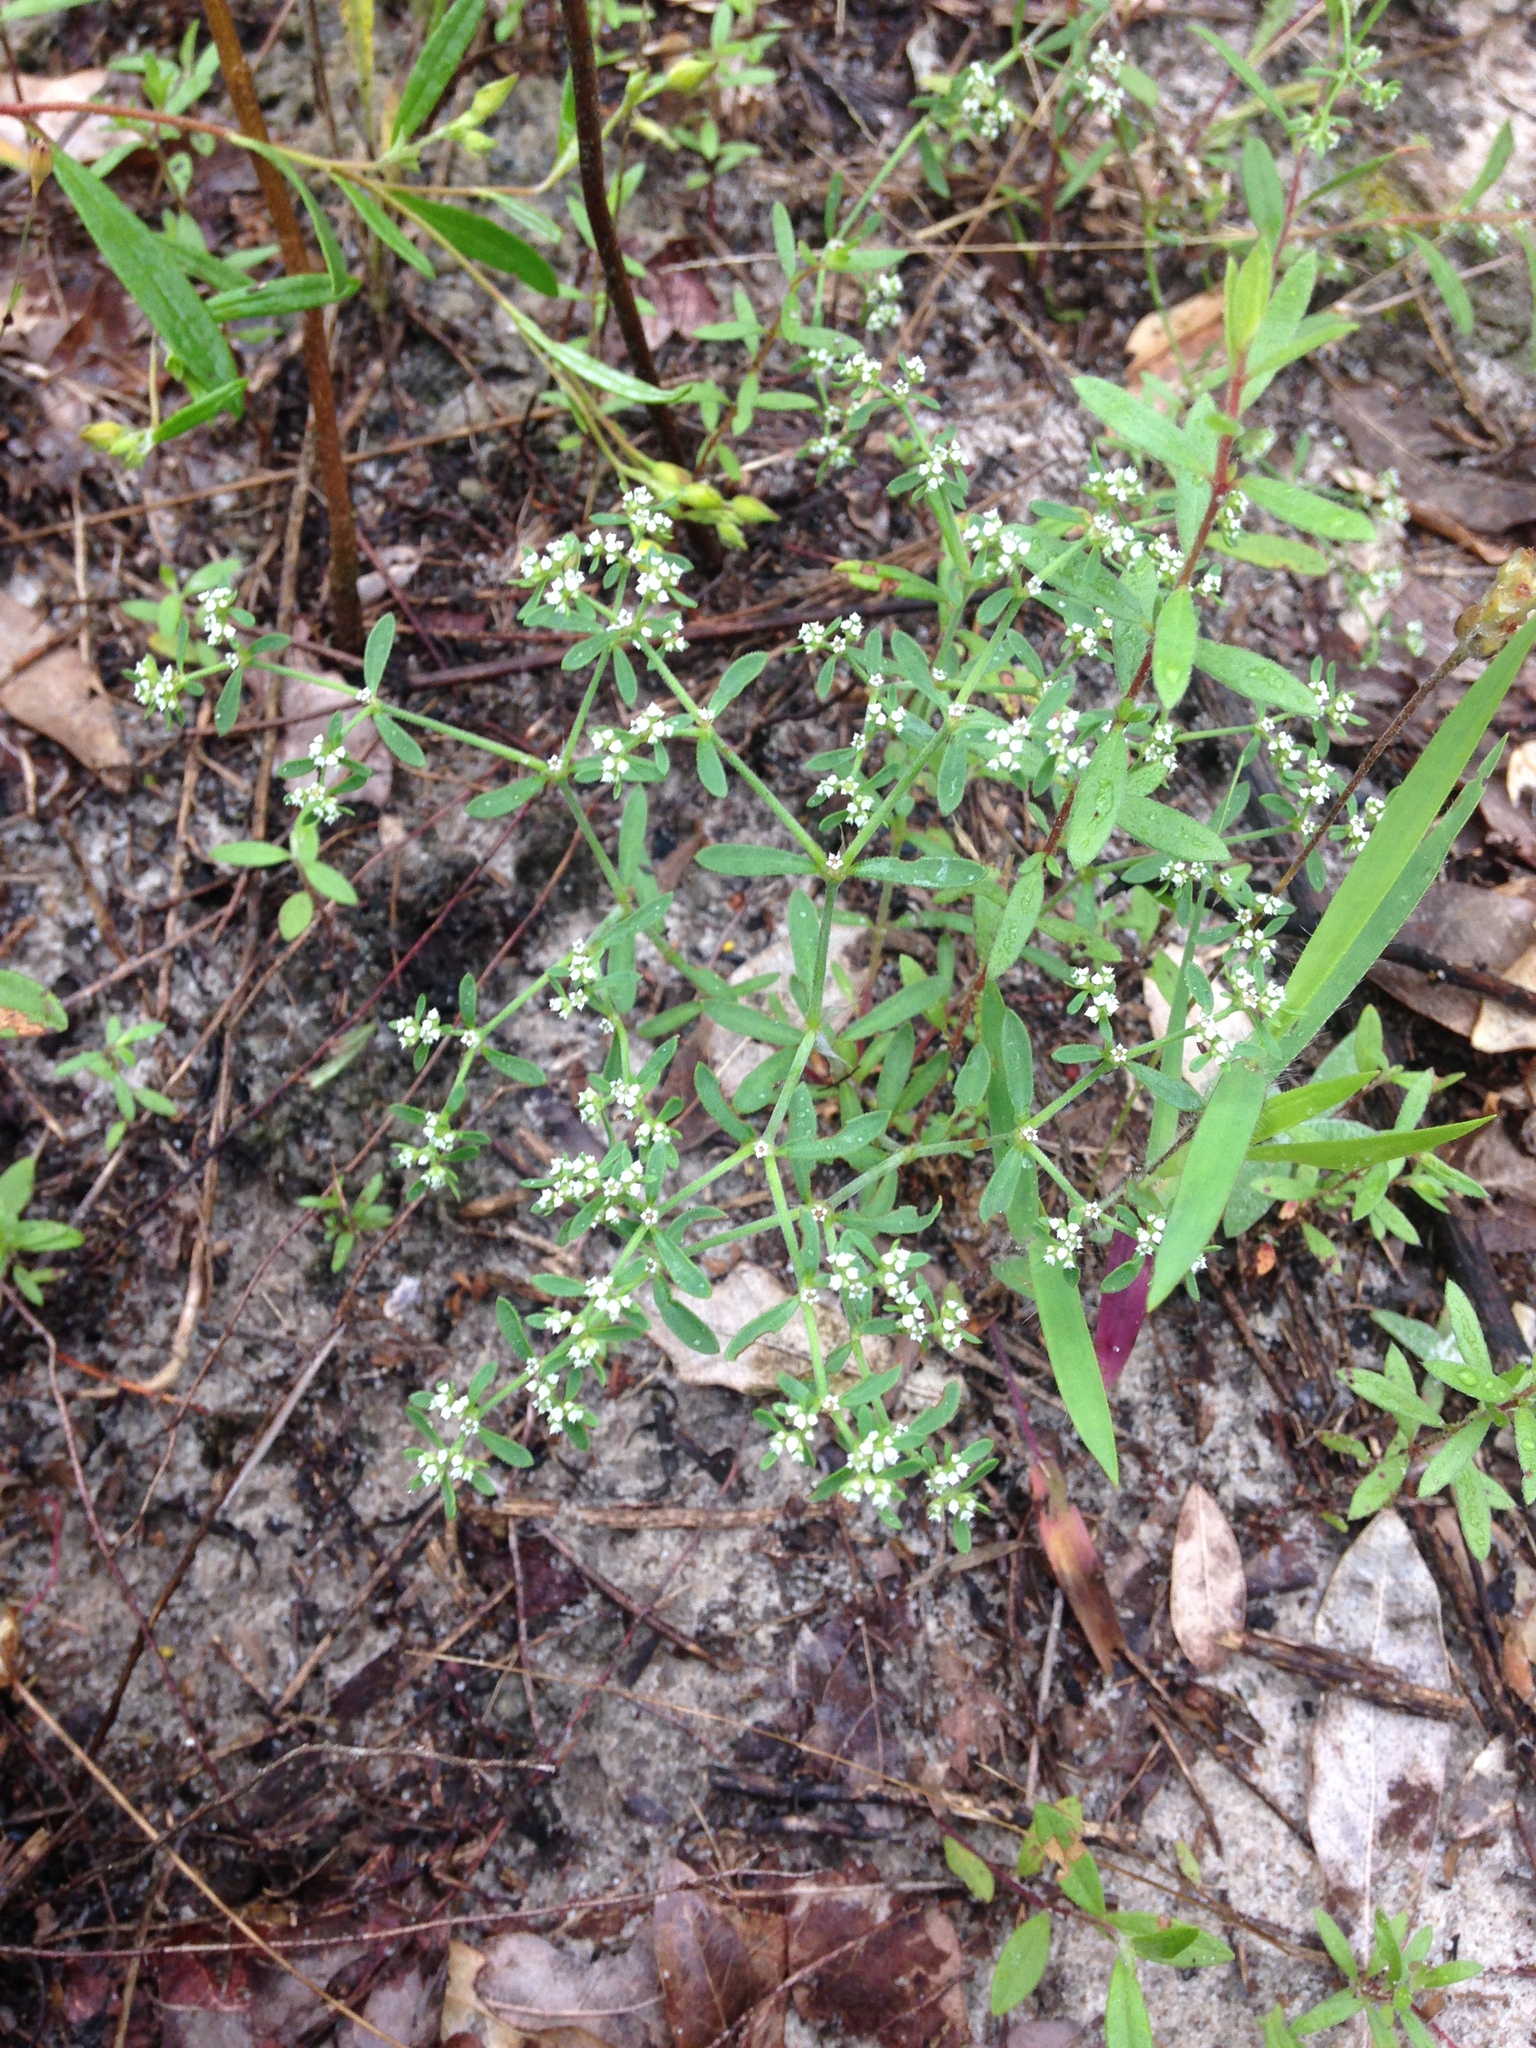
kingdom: Plantae
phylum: Tracheophyta
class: Magnoliopsida
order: Caryophyllales
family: Caryophyllaceae
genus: Paronychia
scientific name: Paronychia drummondii
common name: Drummond's nailwort
